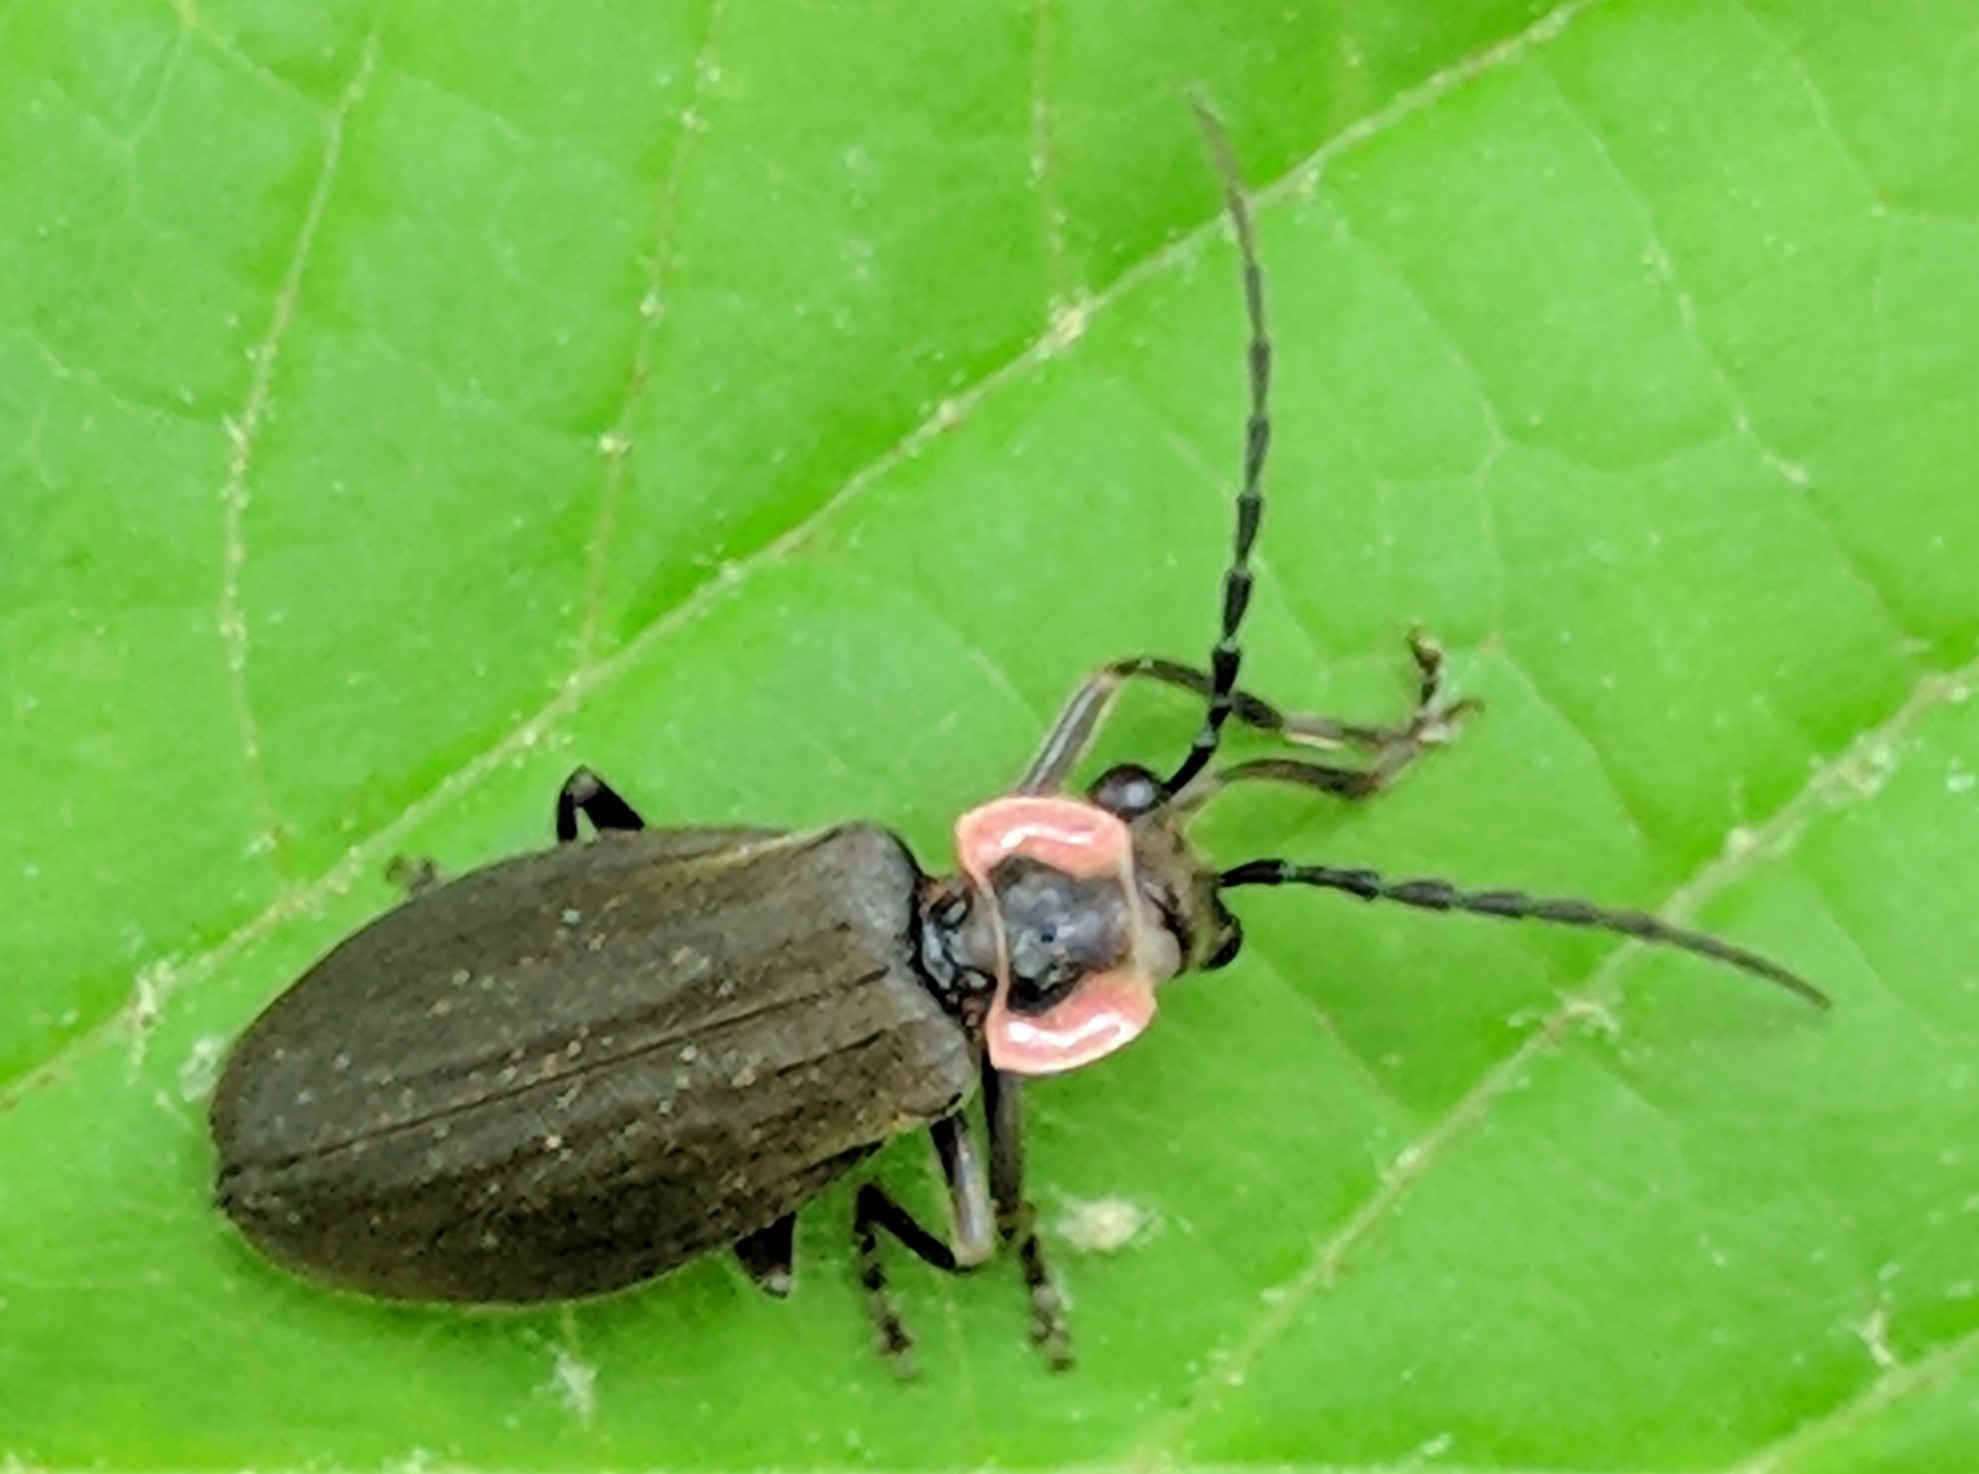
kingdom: Animalia
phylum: Arthropoda
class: Insecta
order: Coleoptera
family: Cantharidae
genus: Podabrus
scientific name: Podabrus tricostatus
